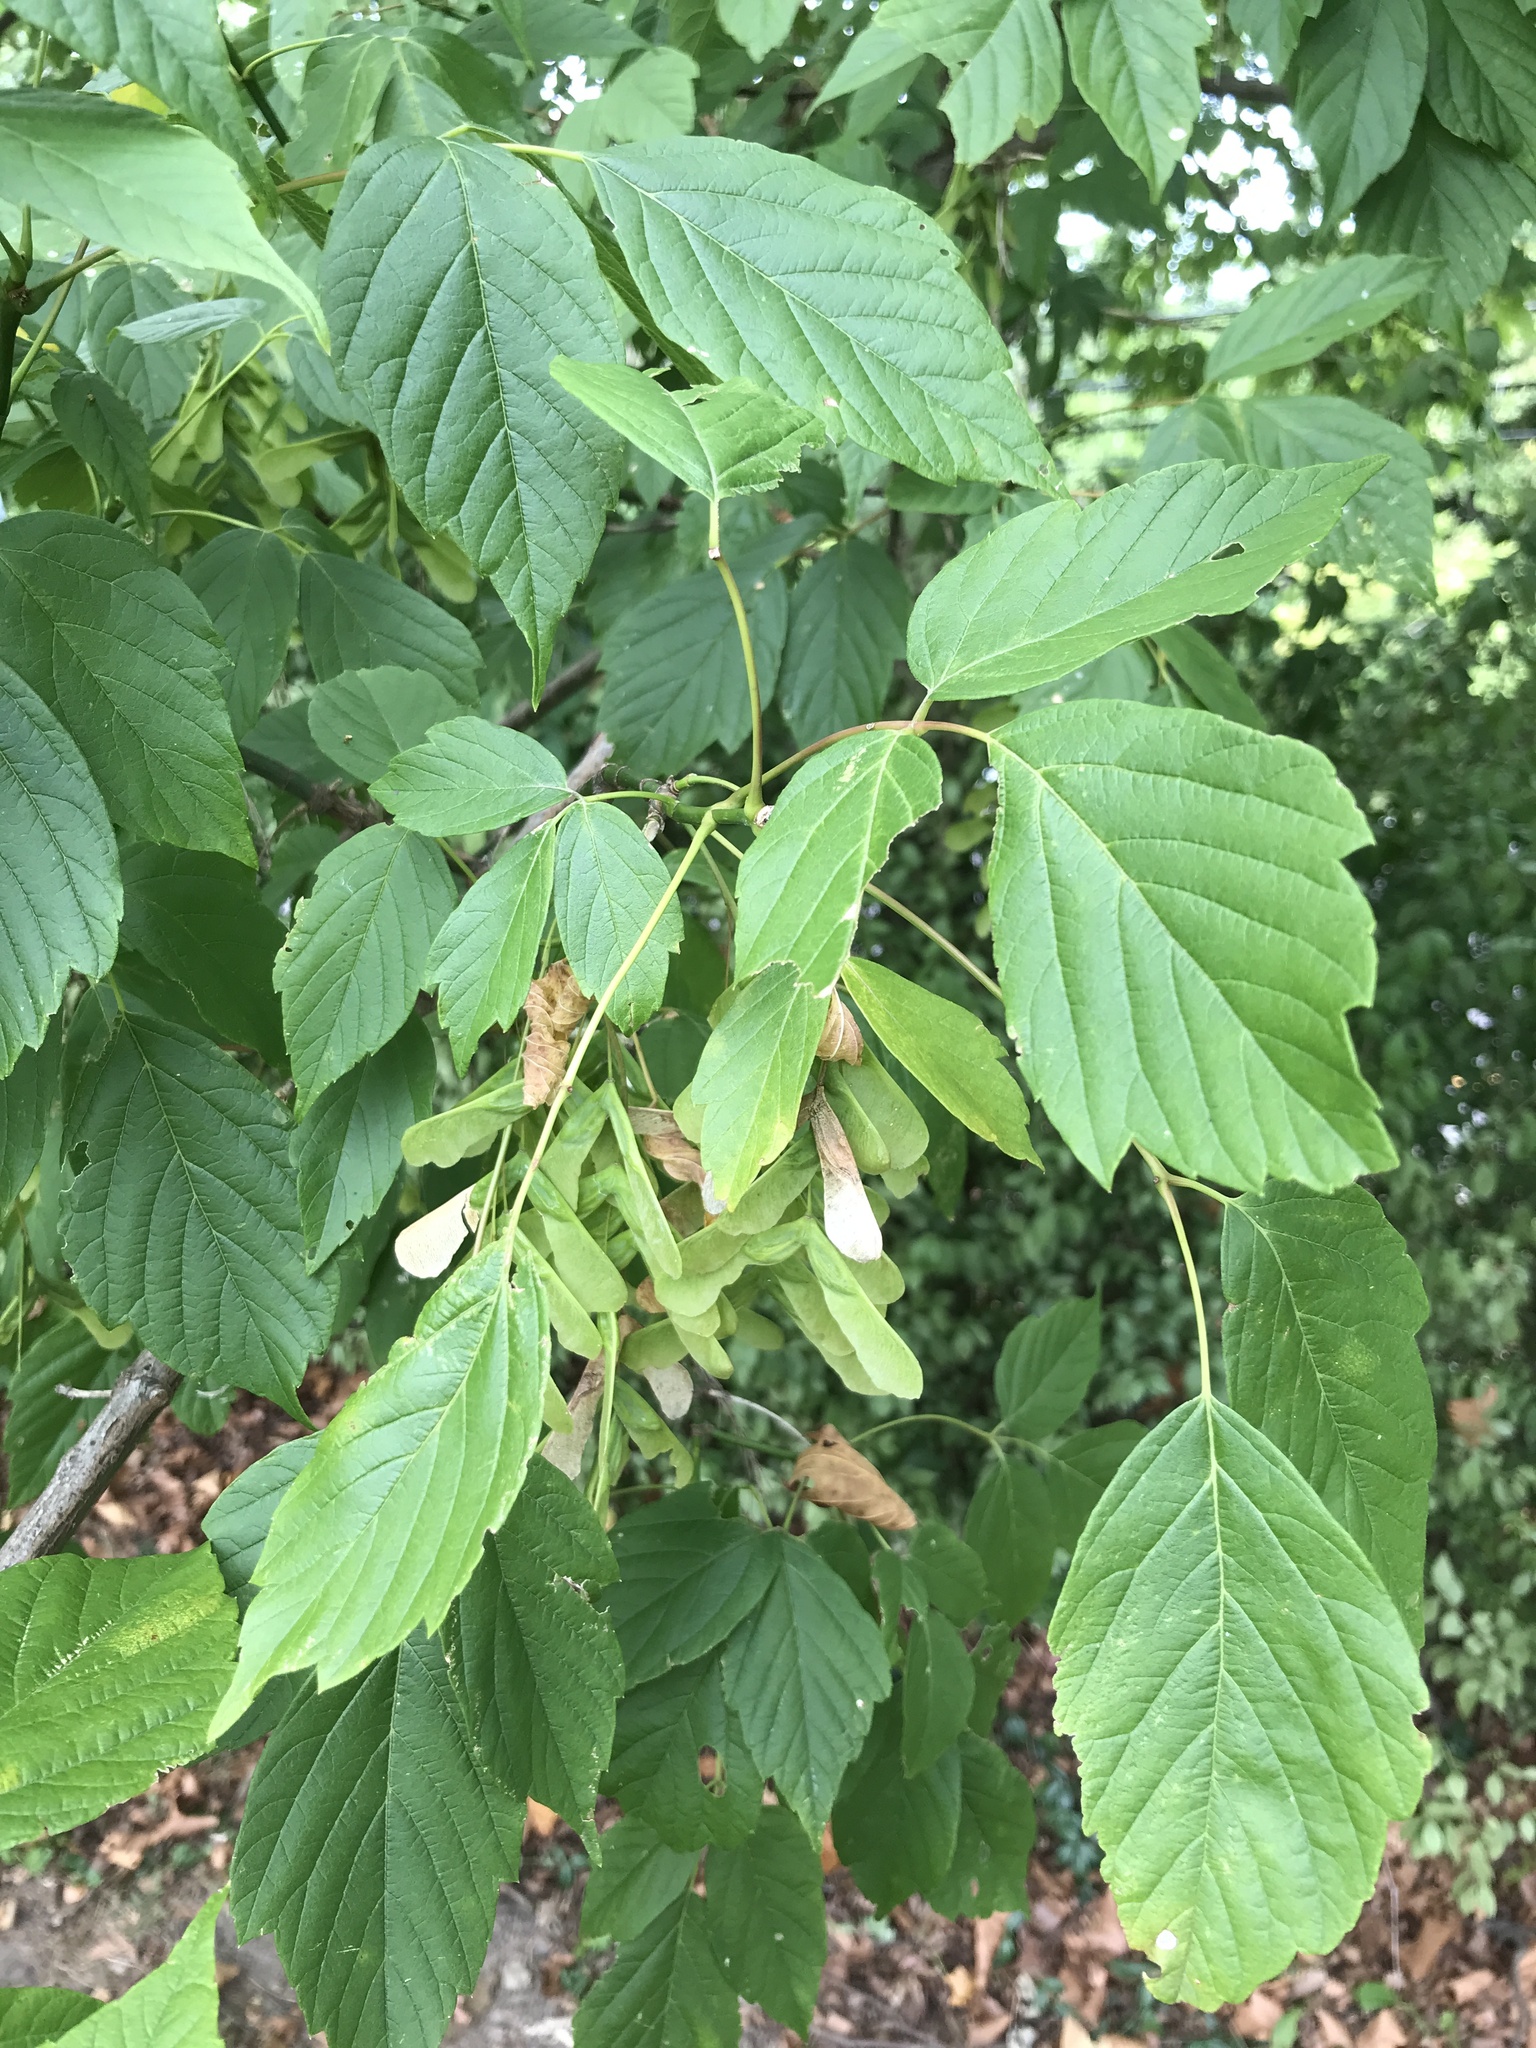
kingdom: Plantae
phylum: Tracheophyta
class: Magnoliopsida
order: Sapindales
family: Sapindaceae
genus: Acer
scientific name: Acer negundo
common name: Ashleaf maple
